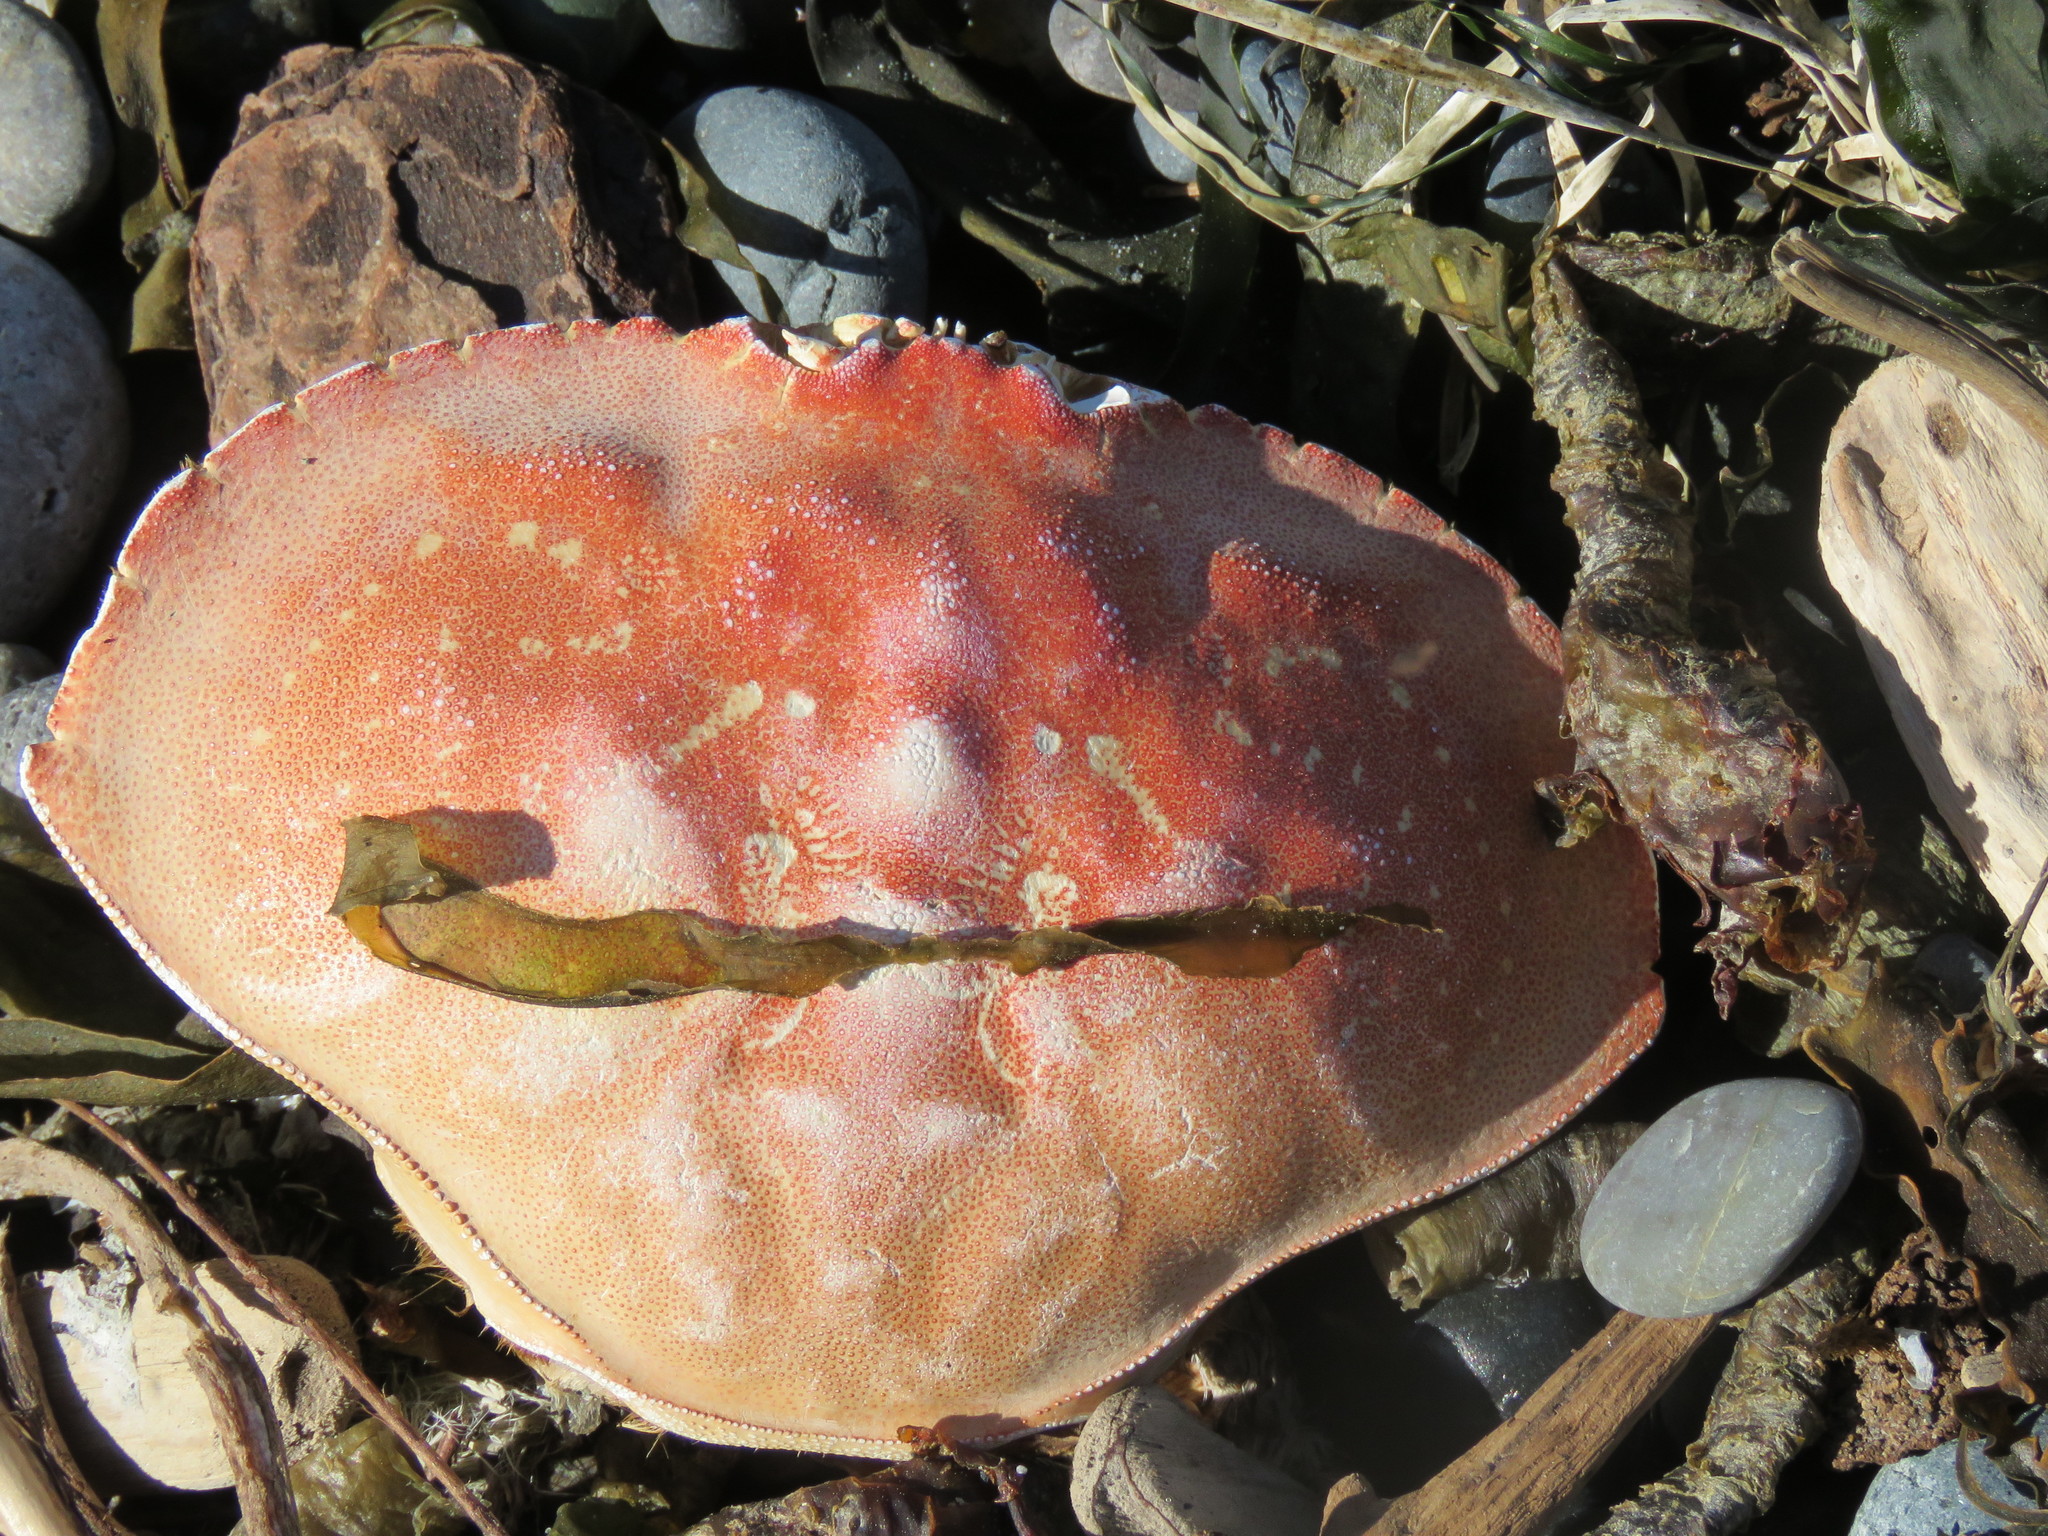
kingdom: Animalia
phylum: Arthropoda
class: Malacostraca
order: Decapoda
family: Cancridae
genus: Metacarcinus
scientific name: Metacarcinus magister
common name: Californian crab
